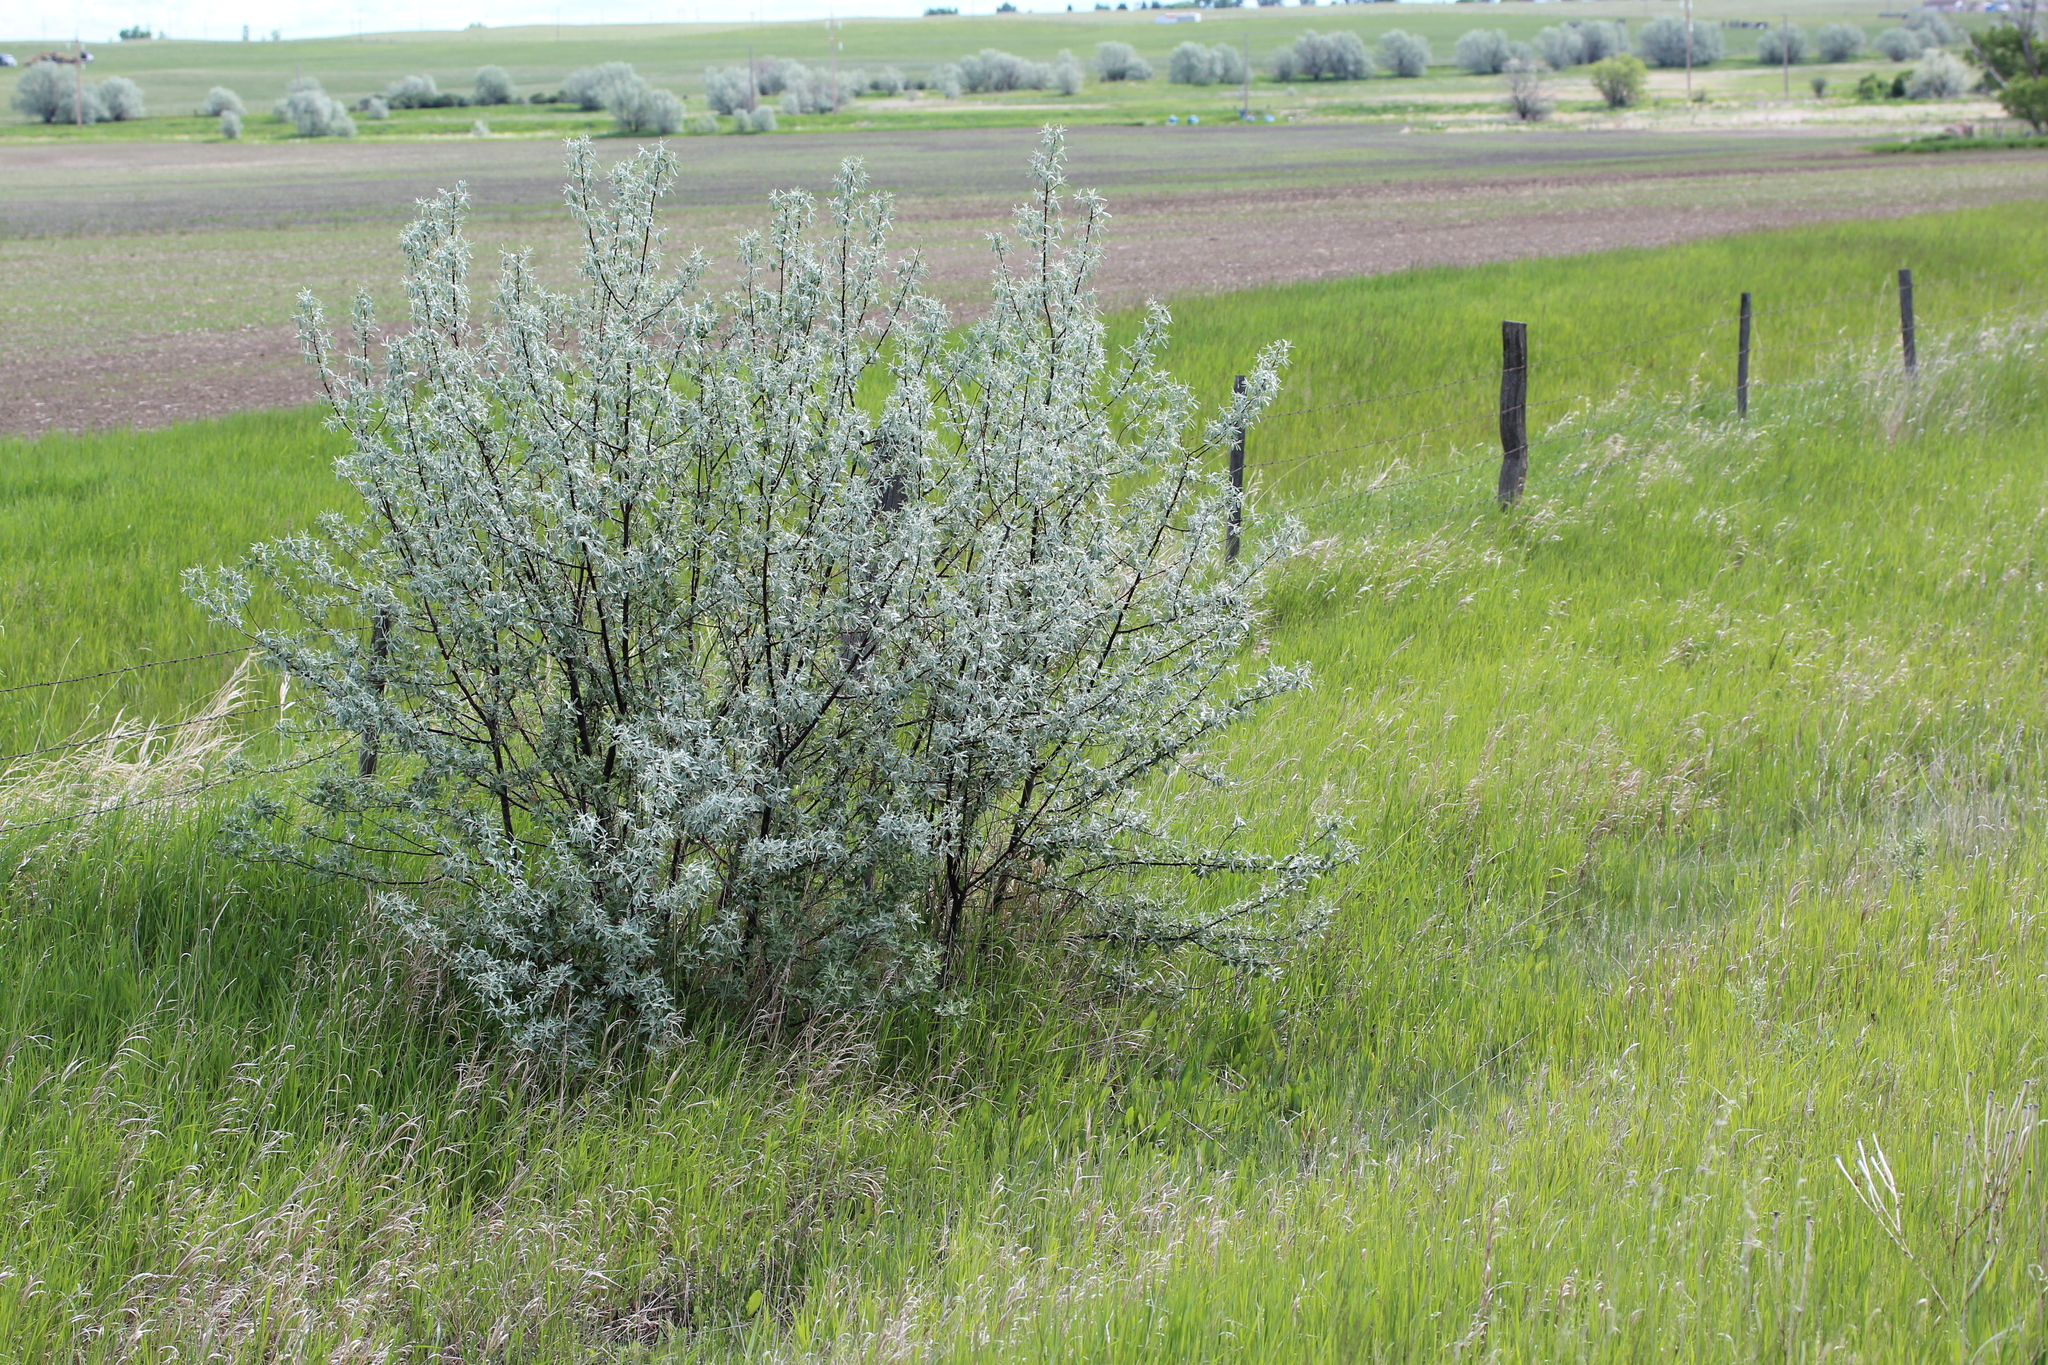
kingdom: Plantae
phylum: Tracheophyta
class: Magnoliopsida
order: Rosales
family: Elaeagnaceae
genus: Elaeagnus
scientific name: Elaeagnus angustifolia
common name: Russian olive
